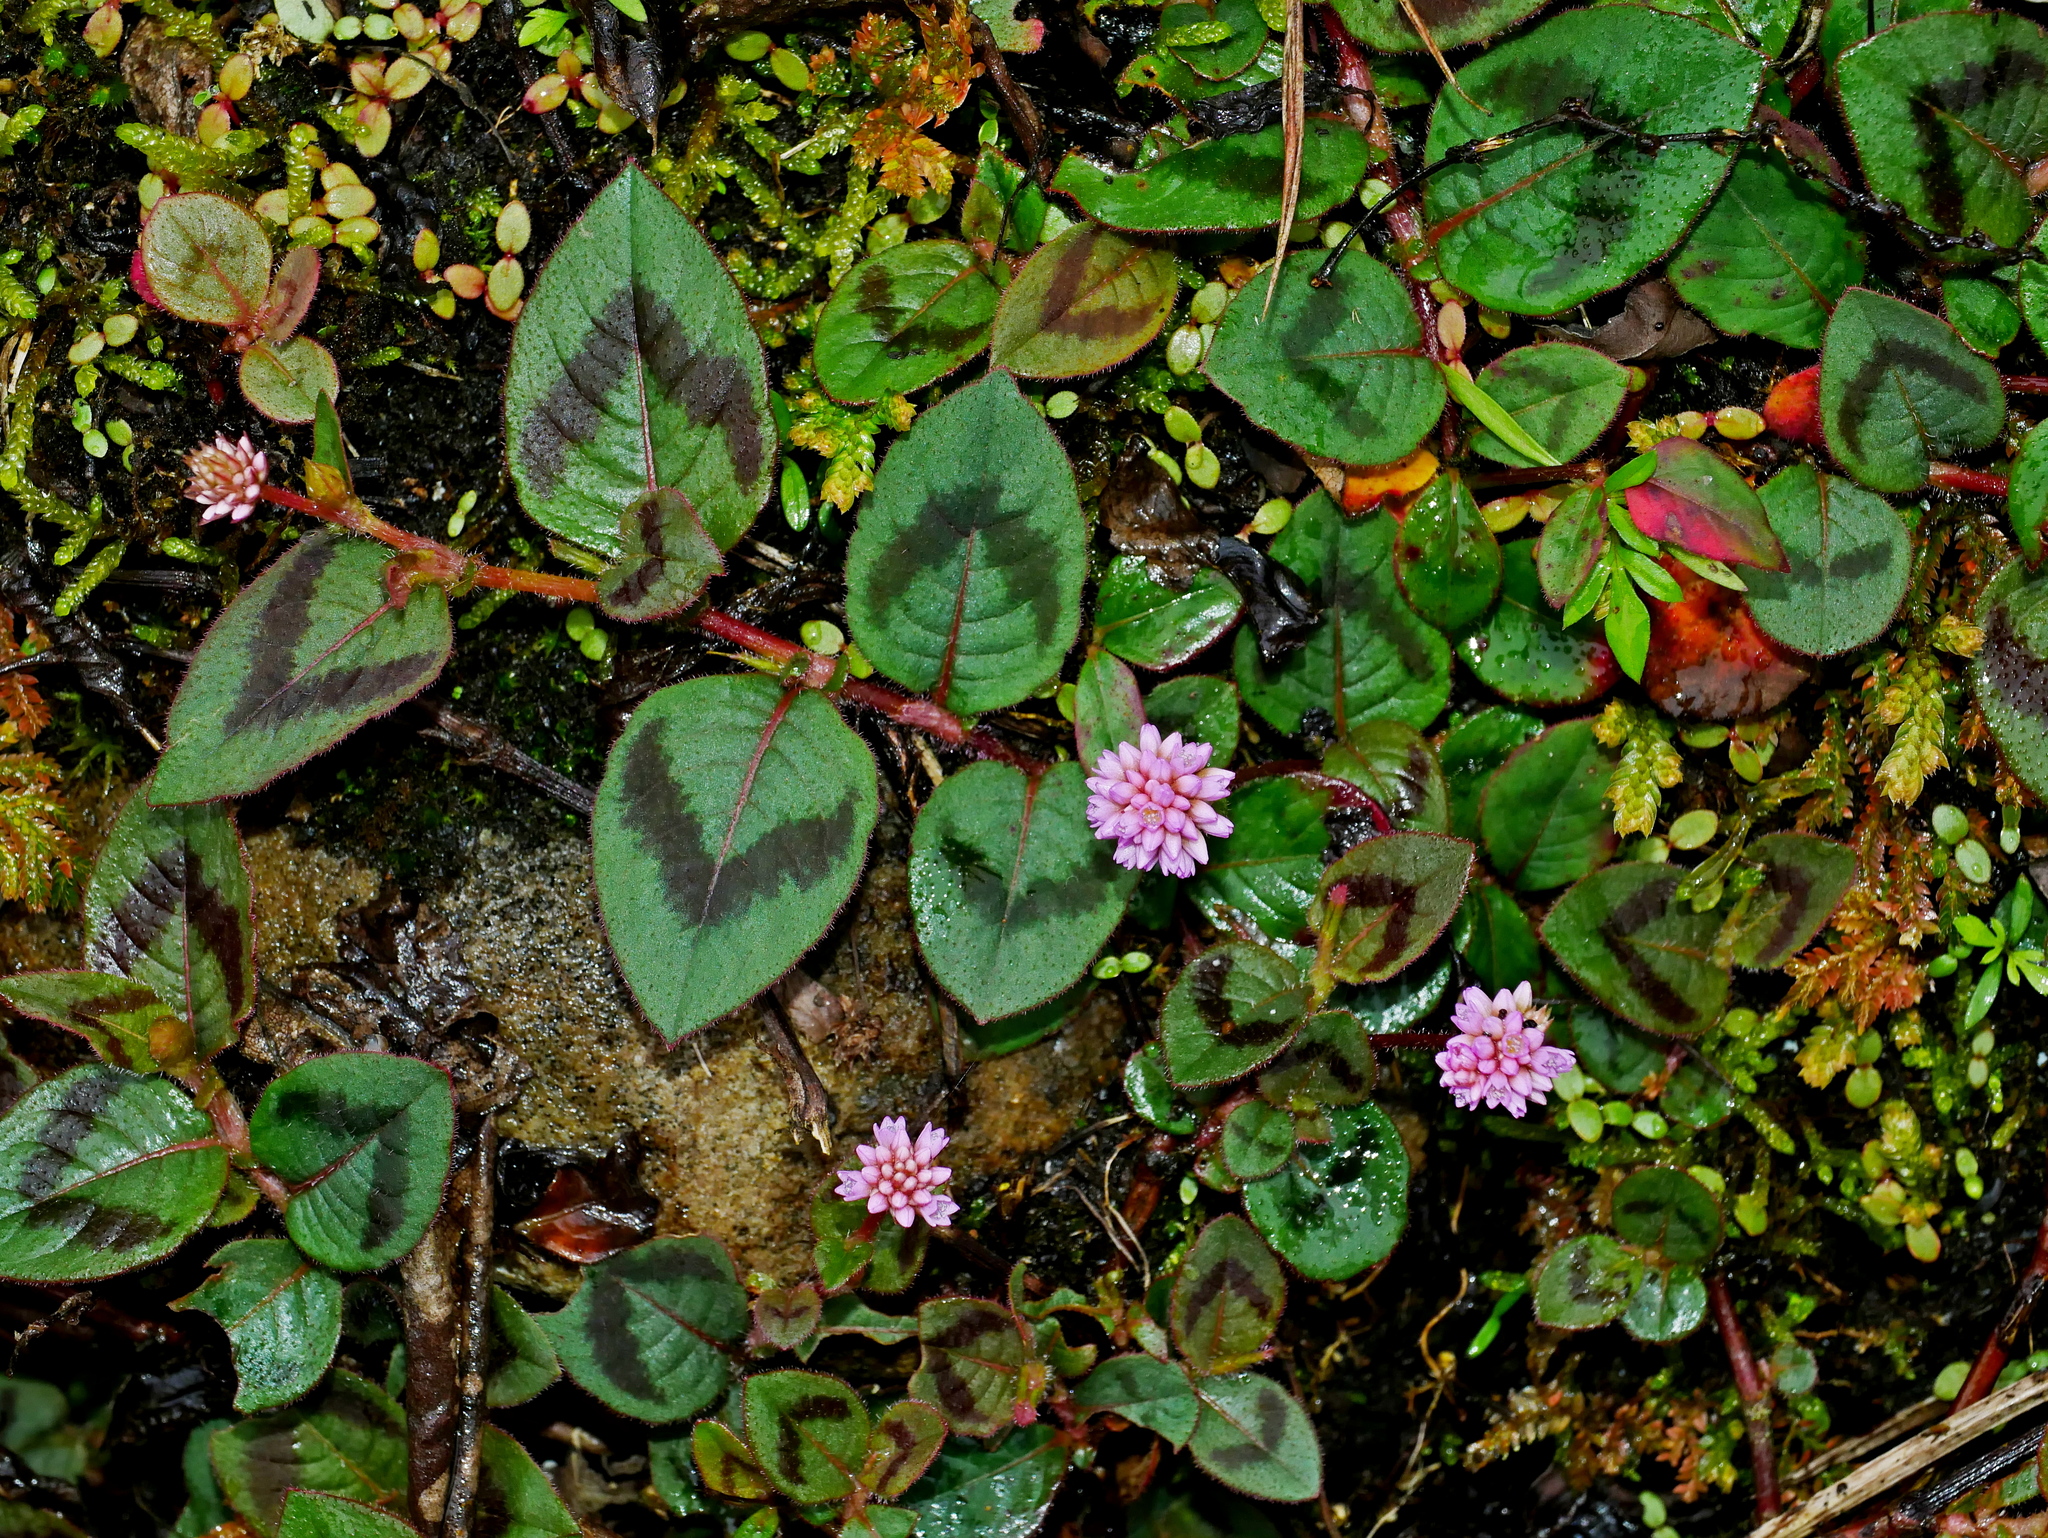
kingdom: Plantae
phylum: Tracheophyta
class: Magnoliopsida
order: Caryophyllales
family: Polygonaceae
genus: Persicaria
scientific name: Persicaria capitata
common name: Pinkhead smartweed
